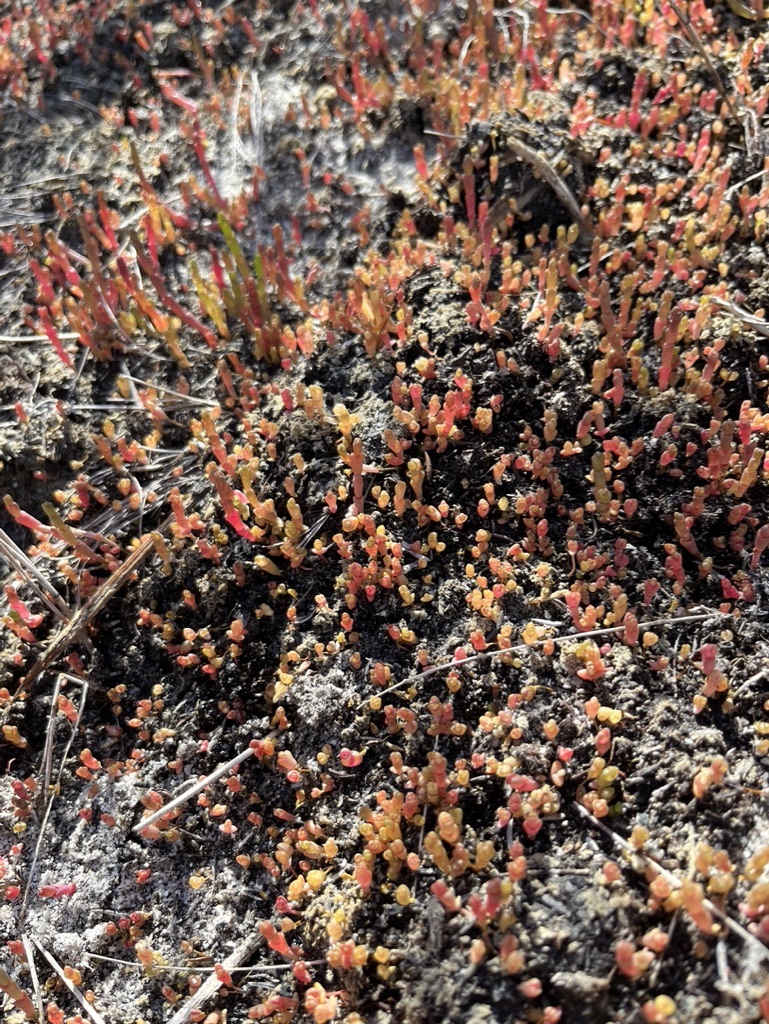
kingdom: Plantae
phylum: Tracheophyta
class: Magnoliopsida
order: Caryophyllales
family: Amaranthaceae
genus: Salicornia
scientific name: Salicornia natalensis
